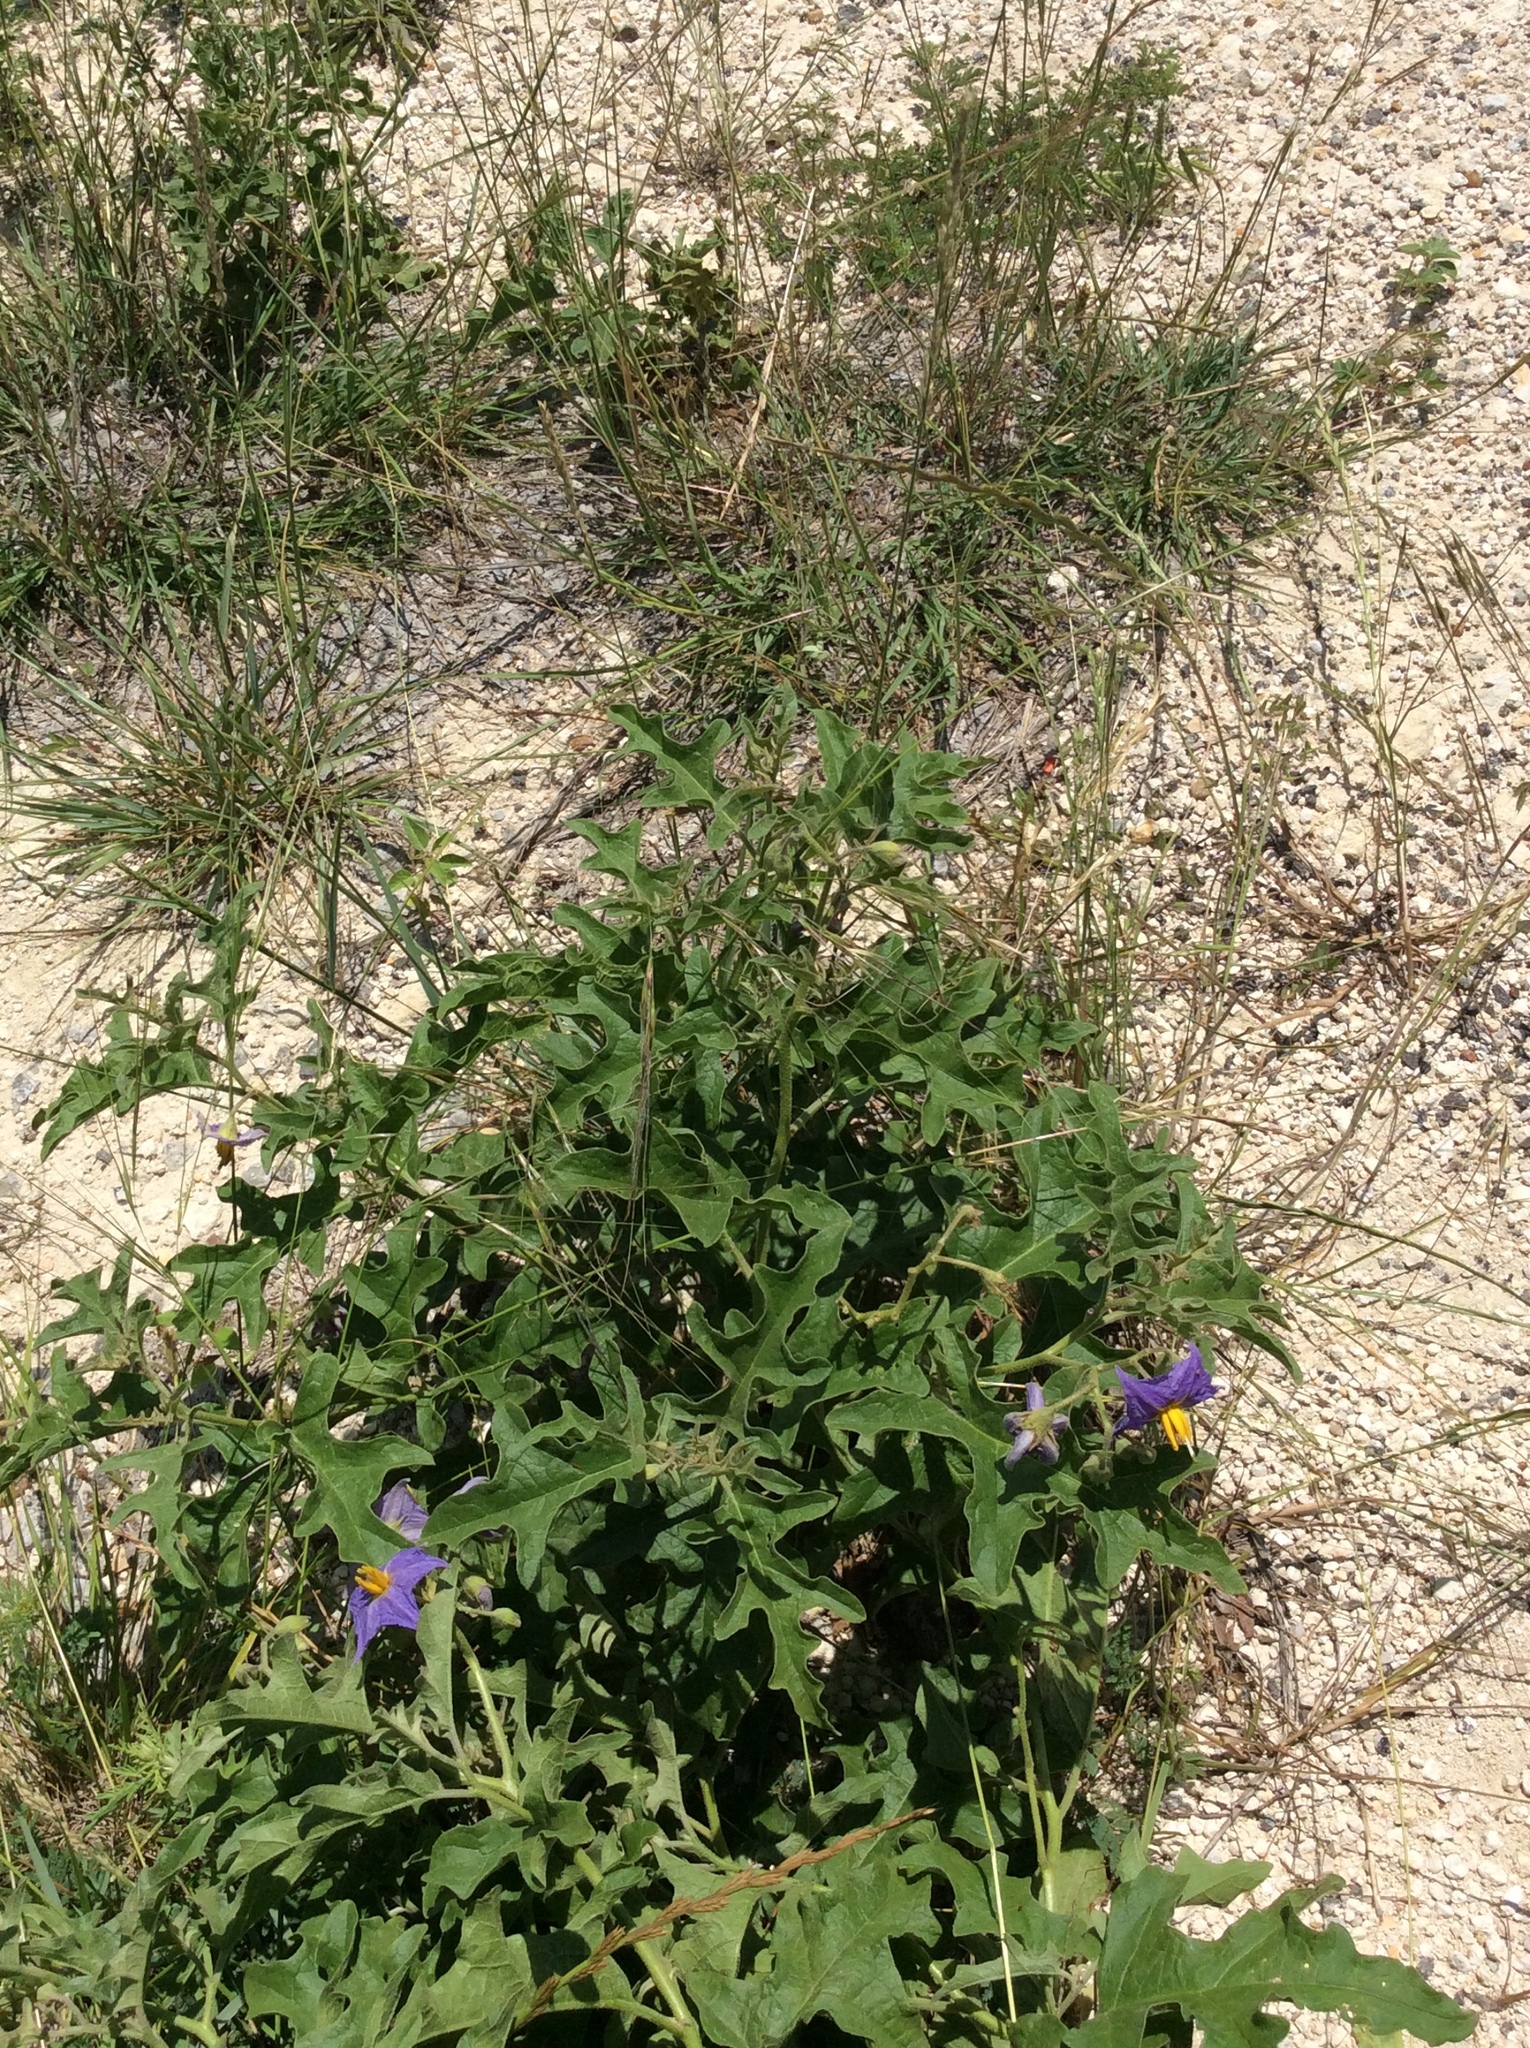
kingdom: Plantae
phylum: Tracheophyta
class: Magnoliopsida
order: Solanales
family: Solanaceae
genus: Solanum
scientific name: Solanum dimidiatum
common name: Carolina horse-nettle
